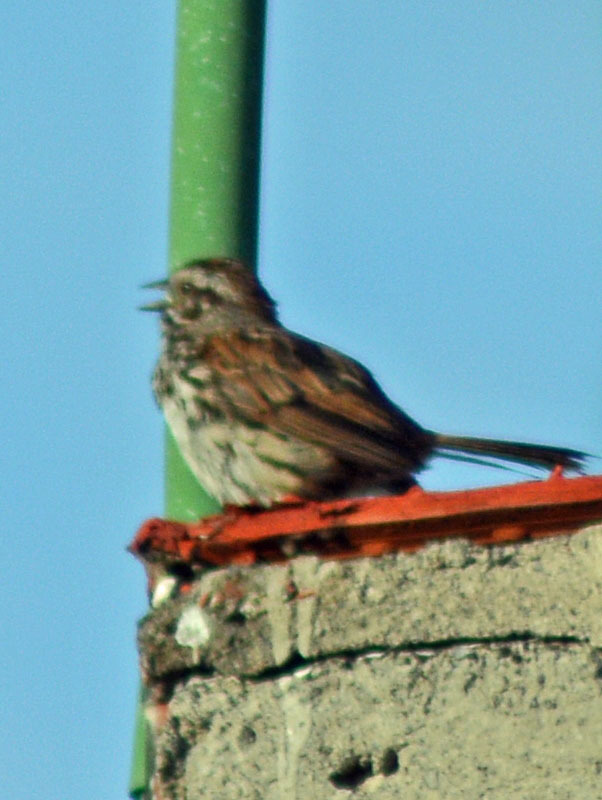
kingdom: Animalia
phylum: Chordata
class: Aves
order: Passeriformes
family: Passerellidae
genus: Melospiza
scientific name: Melospiza melodia
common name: Song sparrow
